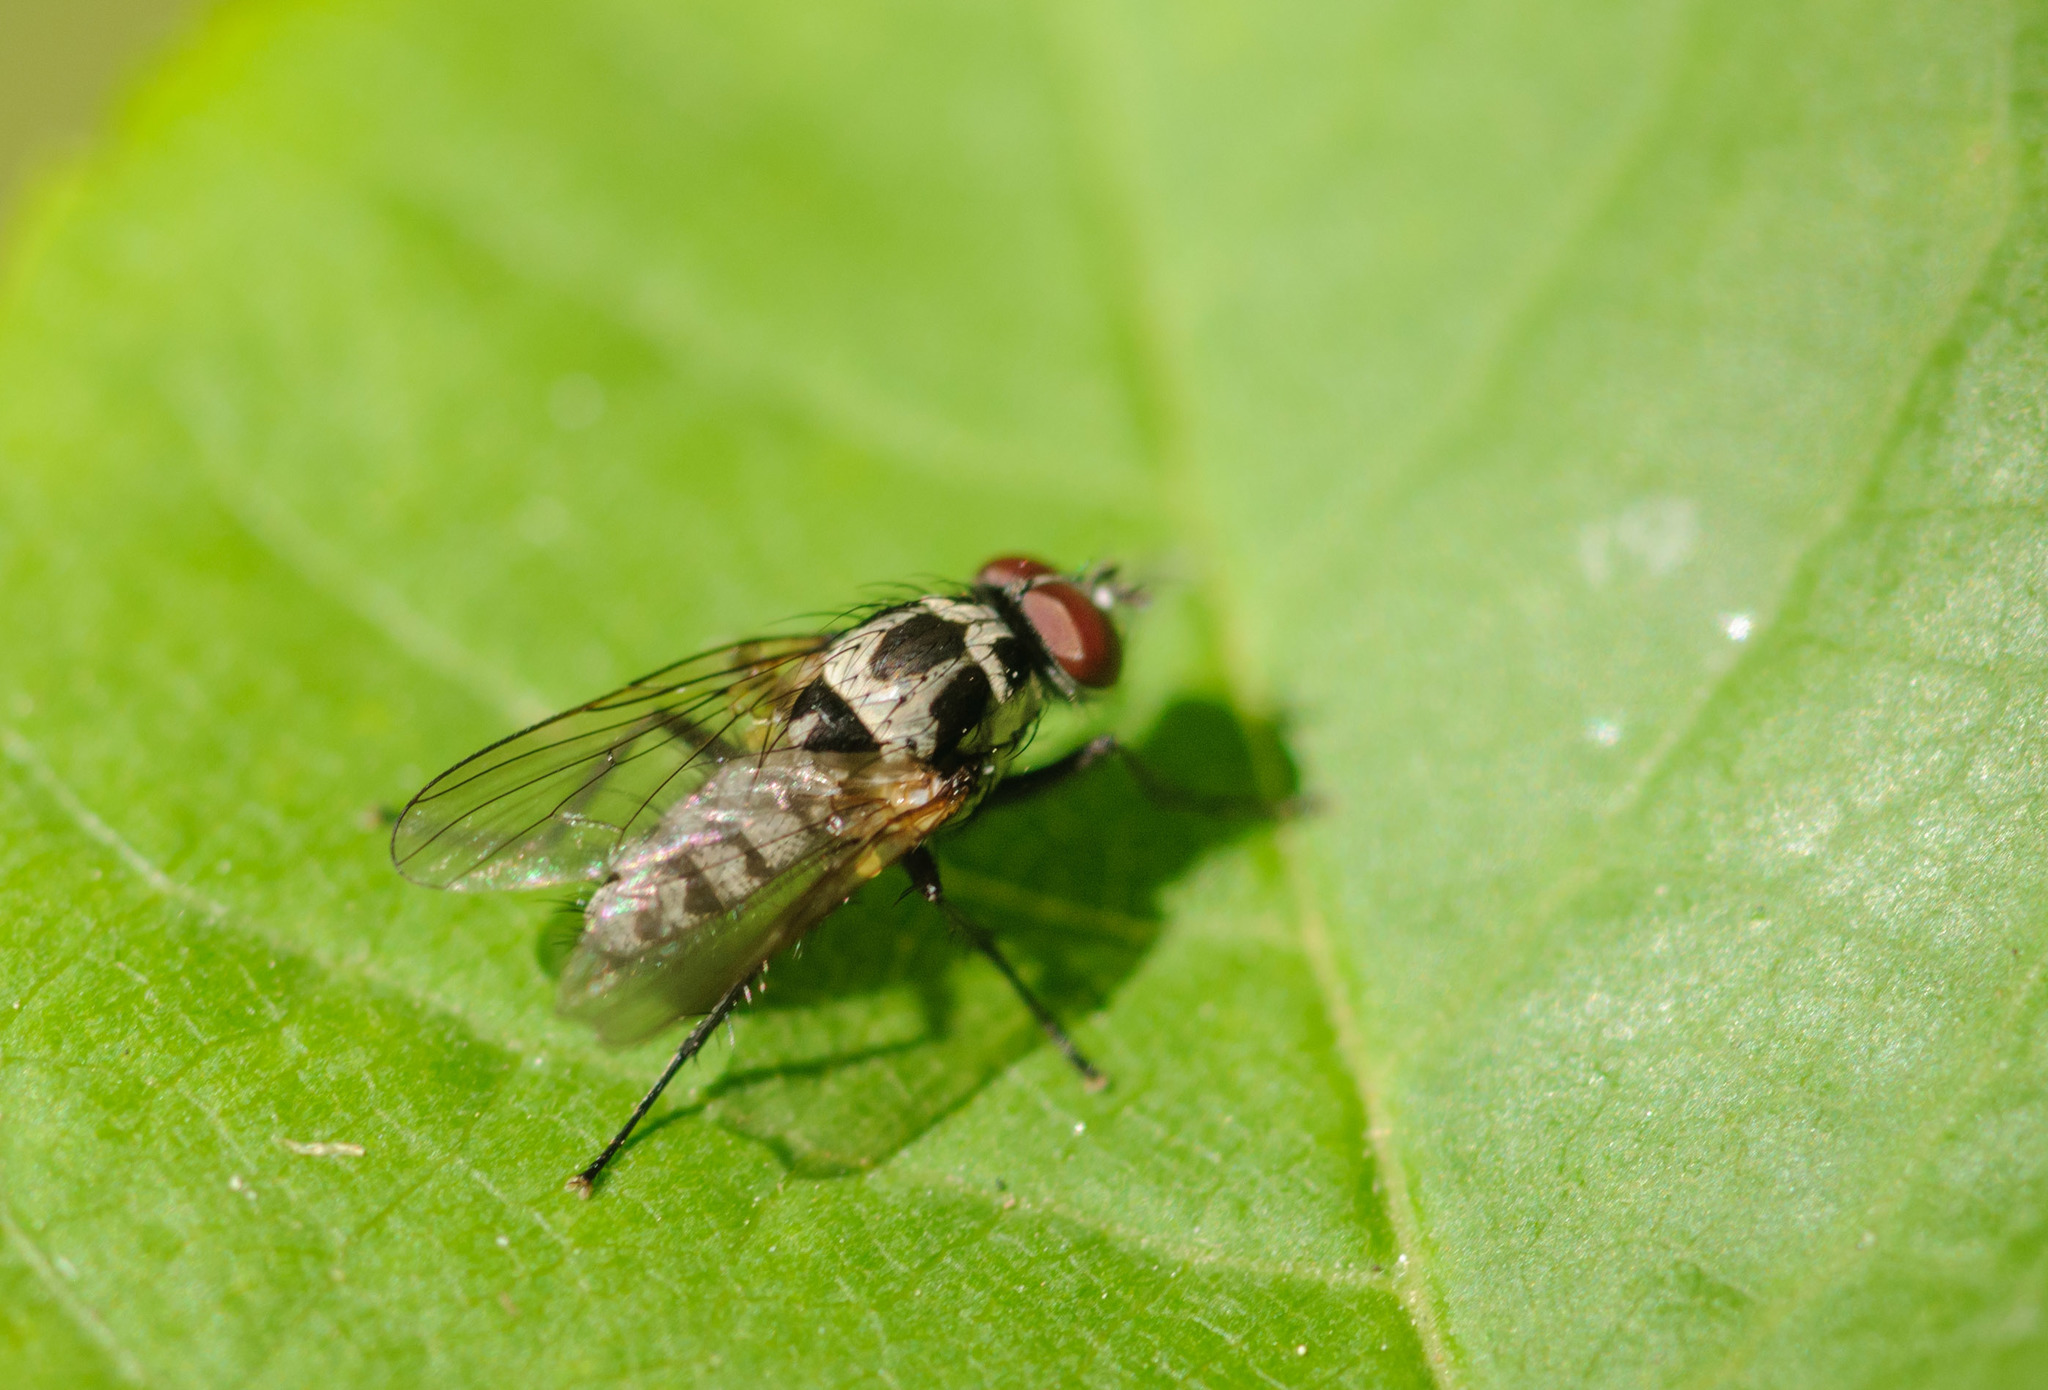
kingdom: Animalia
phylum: Arthropoda
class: Insecta
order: Diptera
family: Anthomyiidae
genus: Anthomyia
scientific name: Anthomyia procellaris
